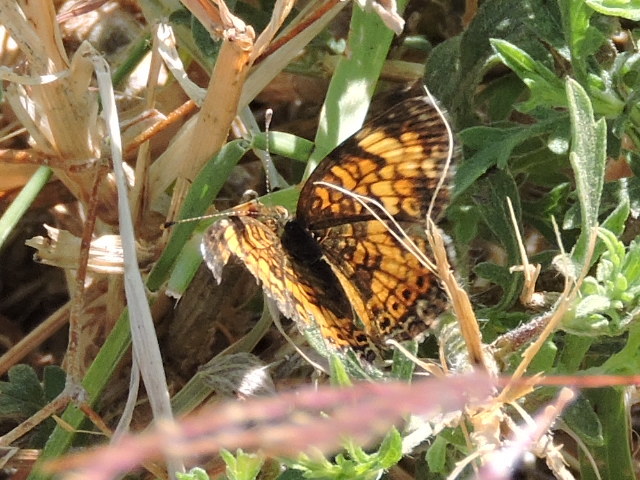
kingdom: Animalia
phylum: Arthropoda
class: Insecta
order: Lepidoptera
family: Nymphalidae
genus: Phyciodes
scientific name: Phyciodes tharos
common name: Pearl crescent
